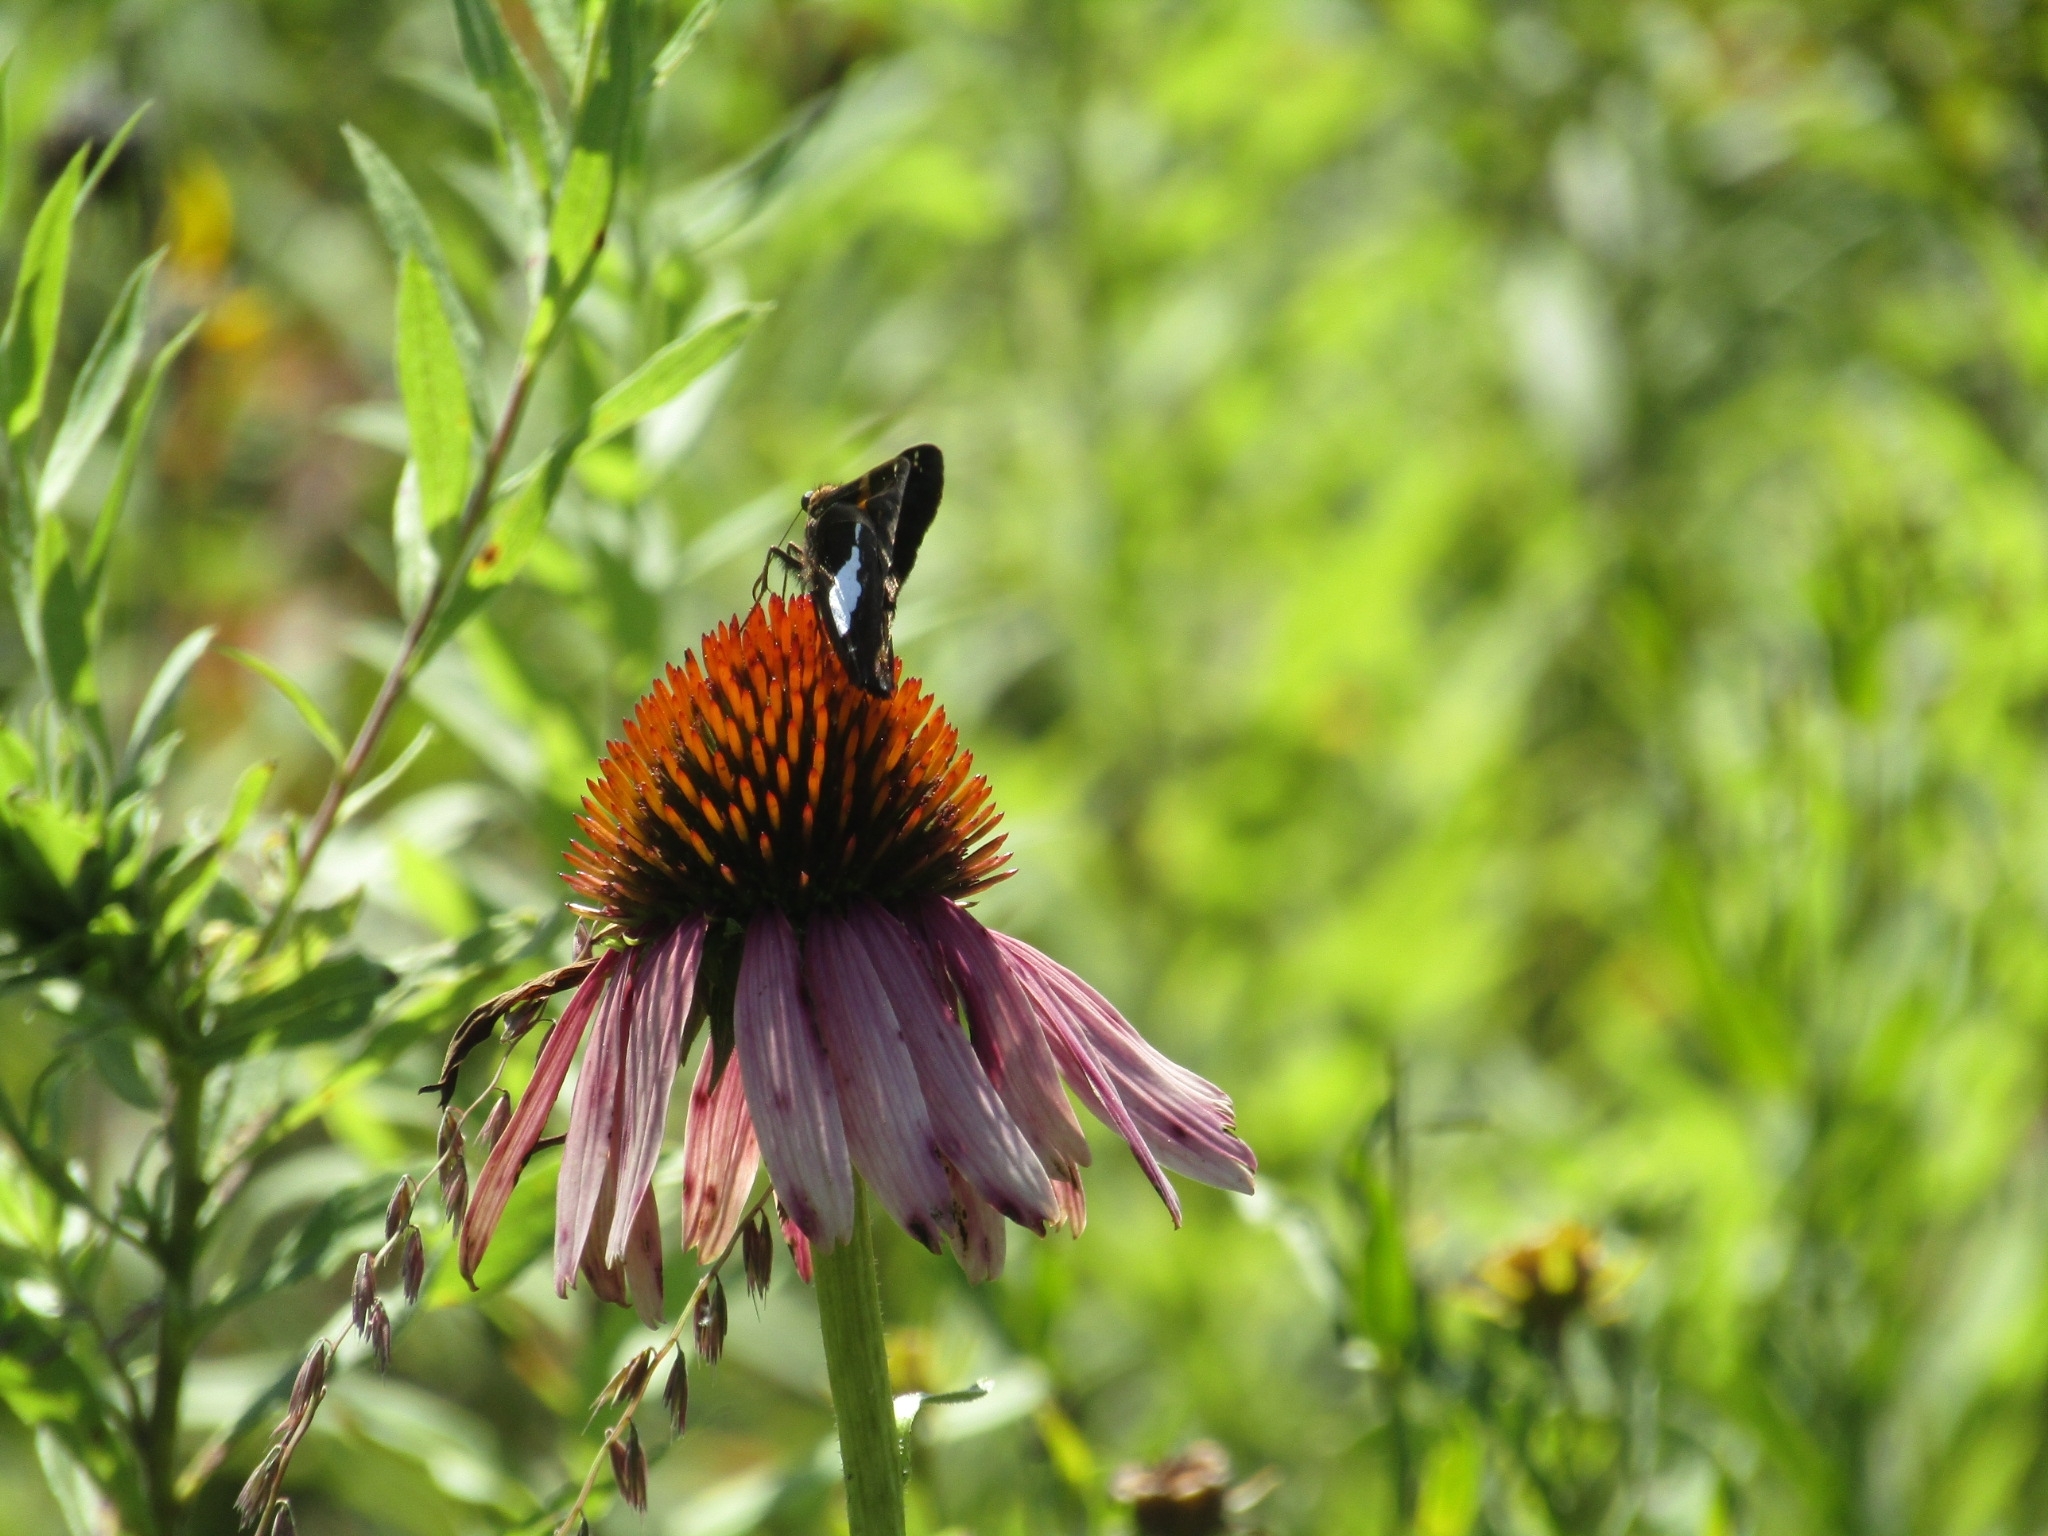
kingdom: Animalia
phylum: Arthropoda
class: Insecta
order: Lepidoptera
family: Hesperiidae
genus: Epargyreus
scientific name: Epargyreus clarus
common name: Silver-spotted skipper
